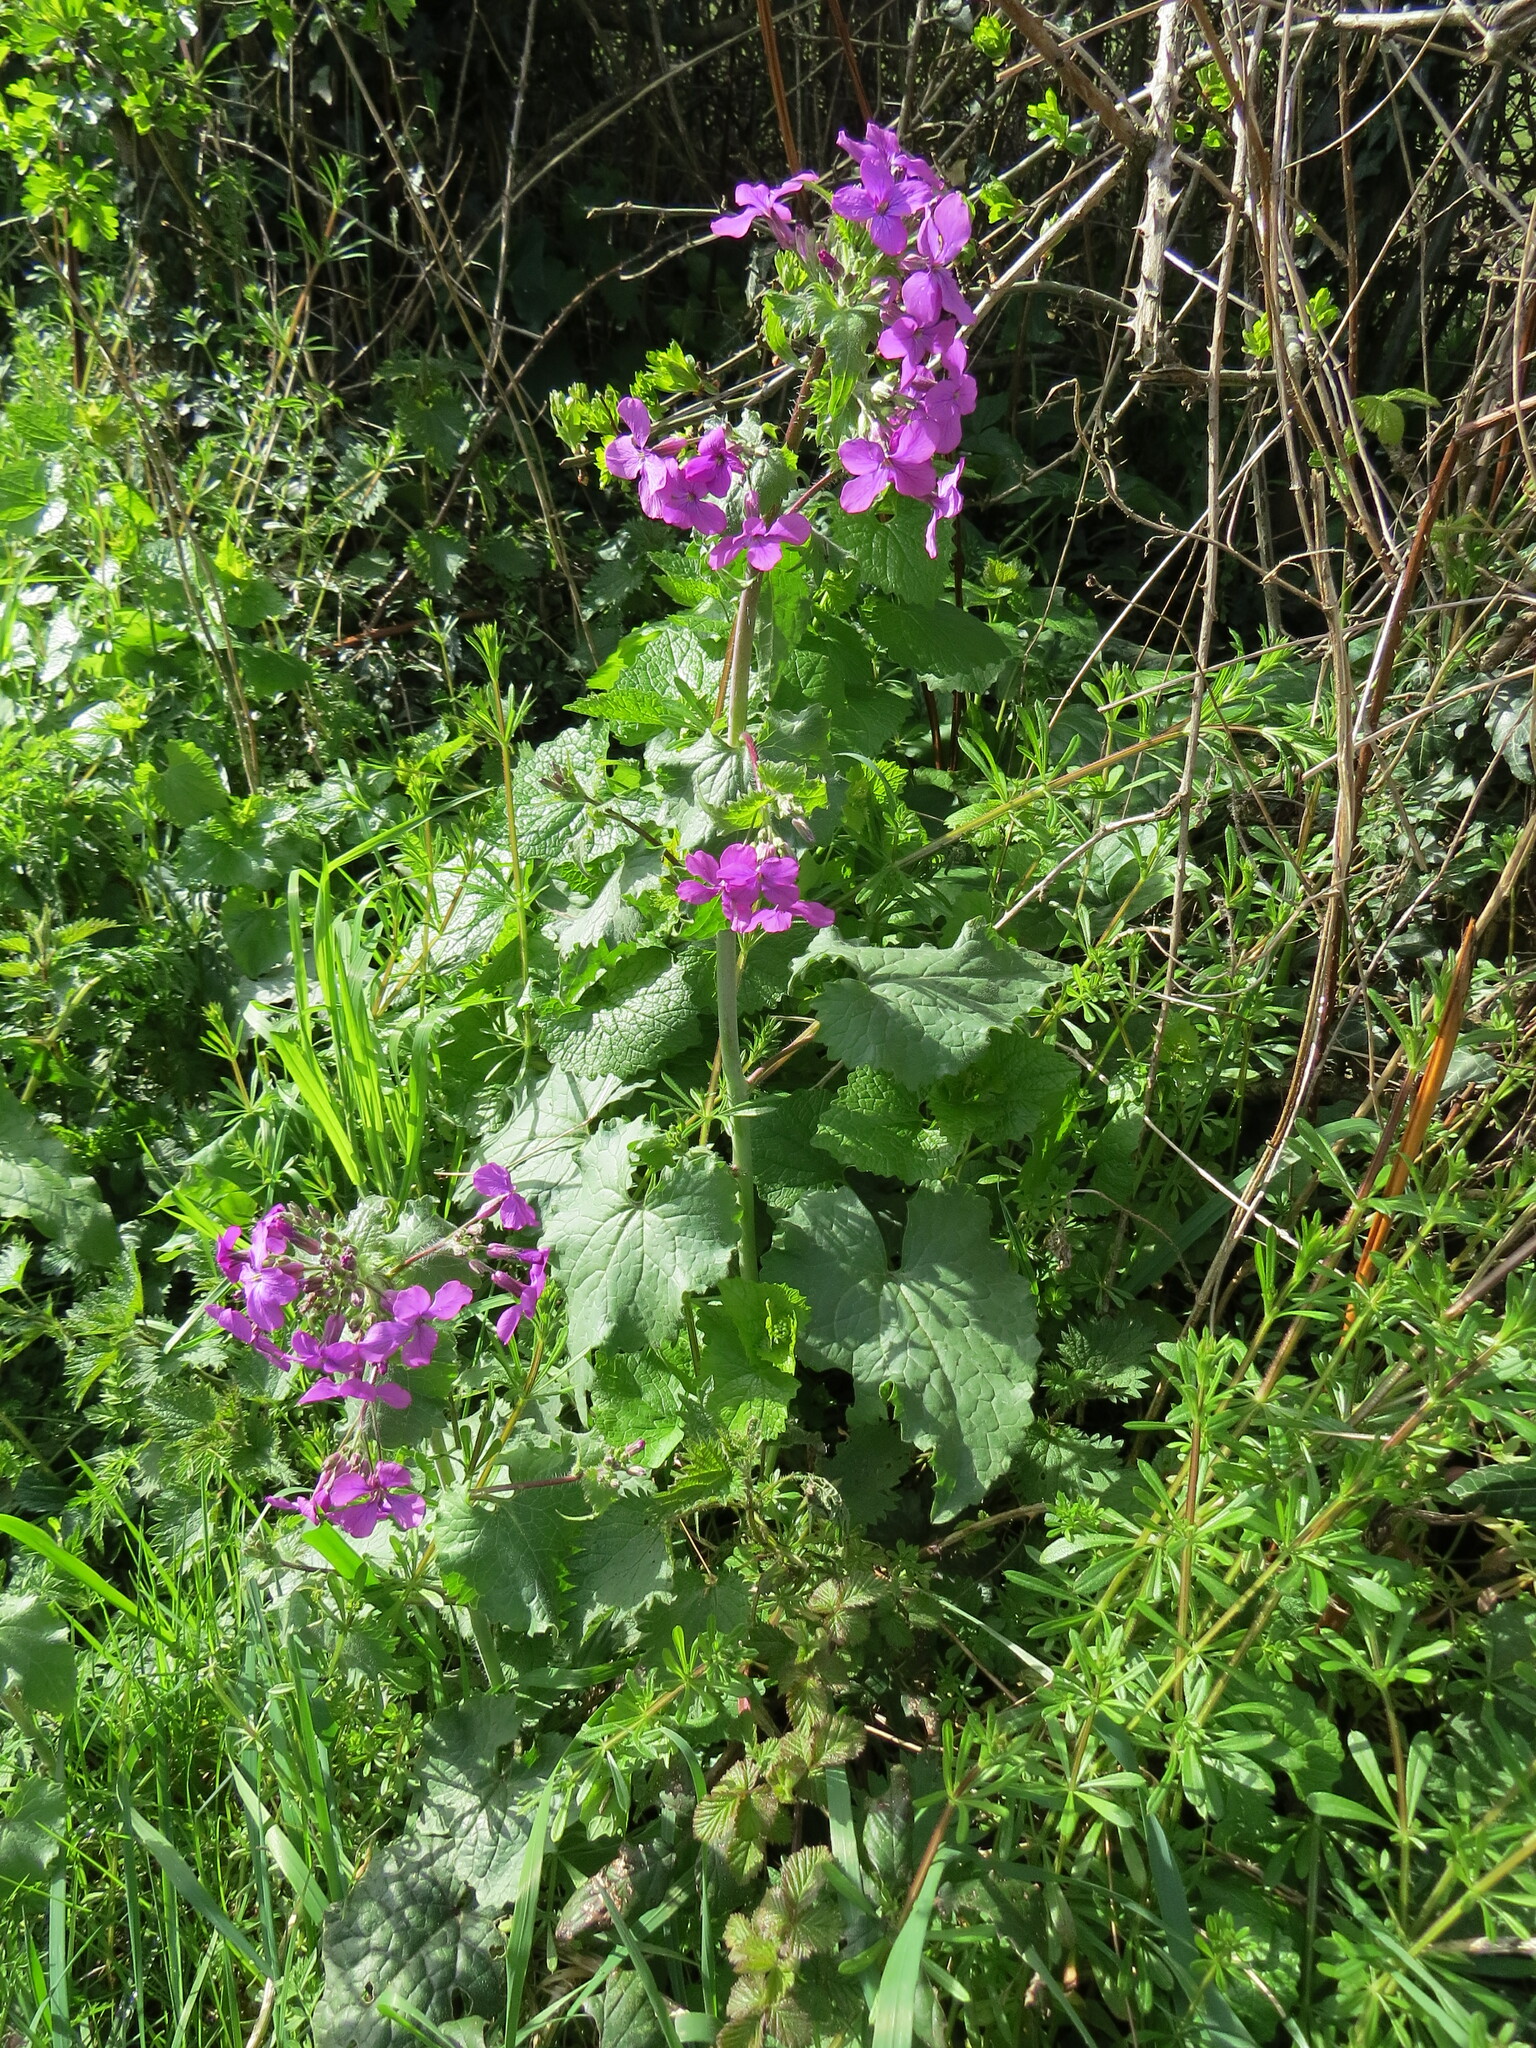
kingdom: Plantae
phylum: Tracheophyta
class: Magnoliopsida
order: Brassicales
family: Brassicaceae
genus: Lunaria
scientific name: Lunaria annua
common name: Honesty
